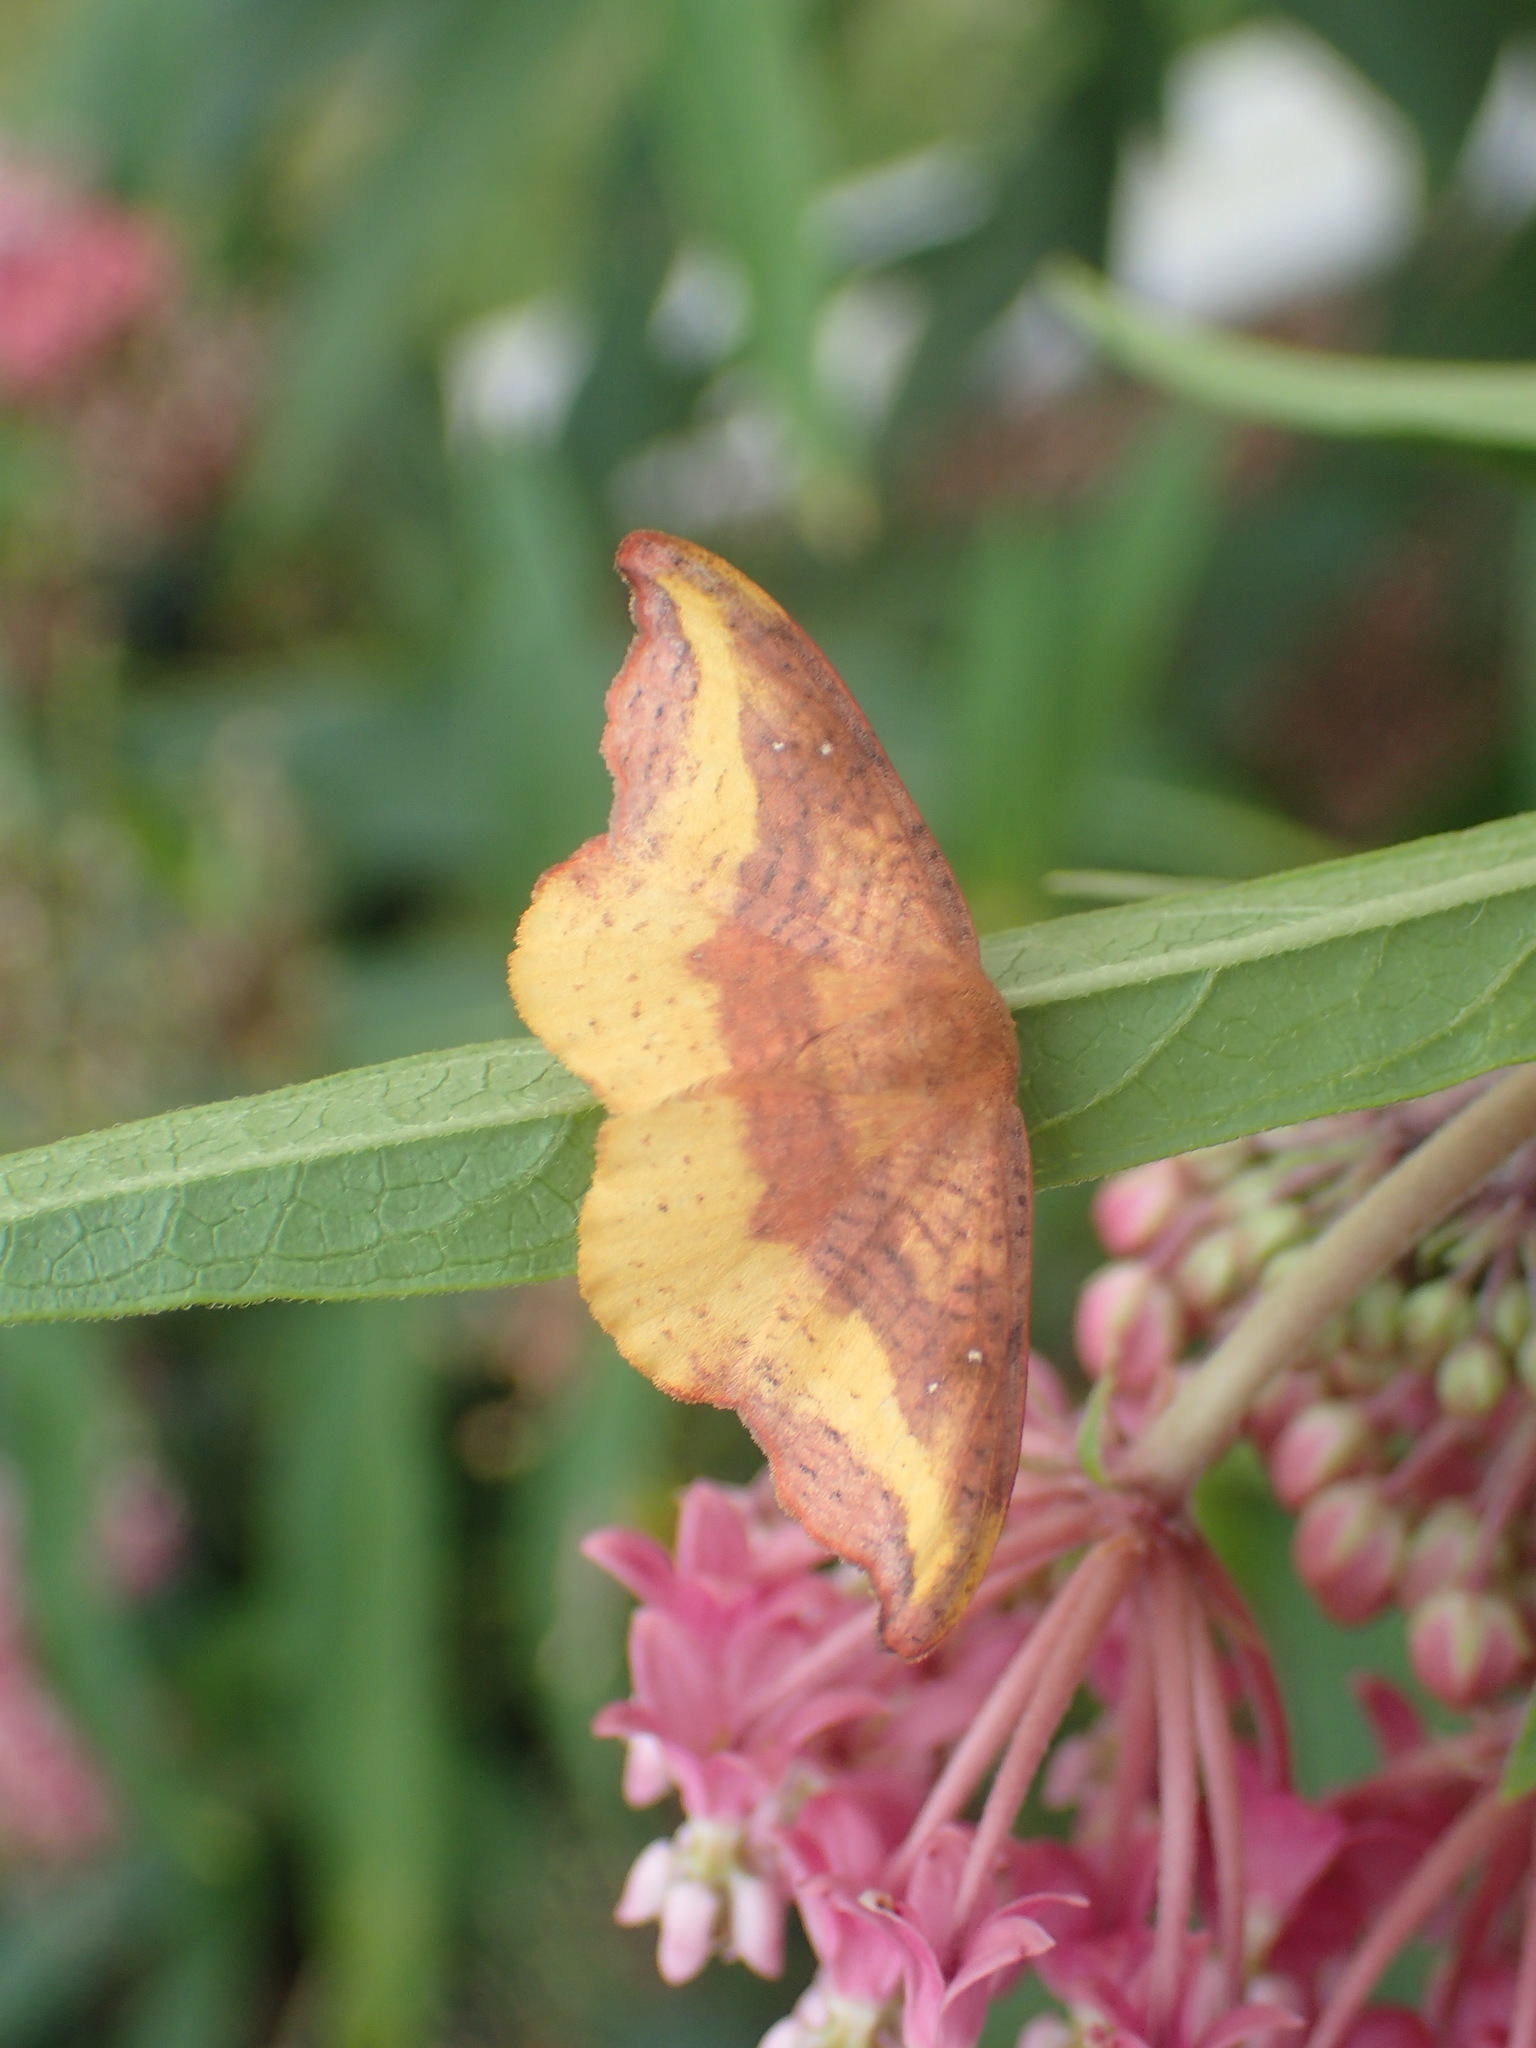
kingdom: Animalia
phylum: Arthropoda
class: Insecta
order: Lepidoptera
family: Drepanidae
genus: Oreta
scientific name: Oreta rosea
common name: Rose hooktip
